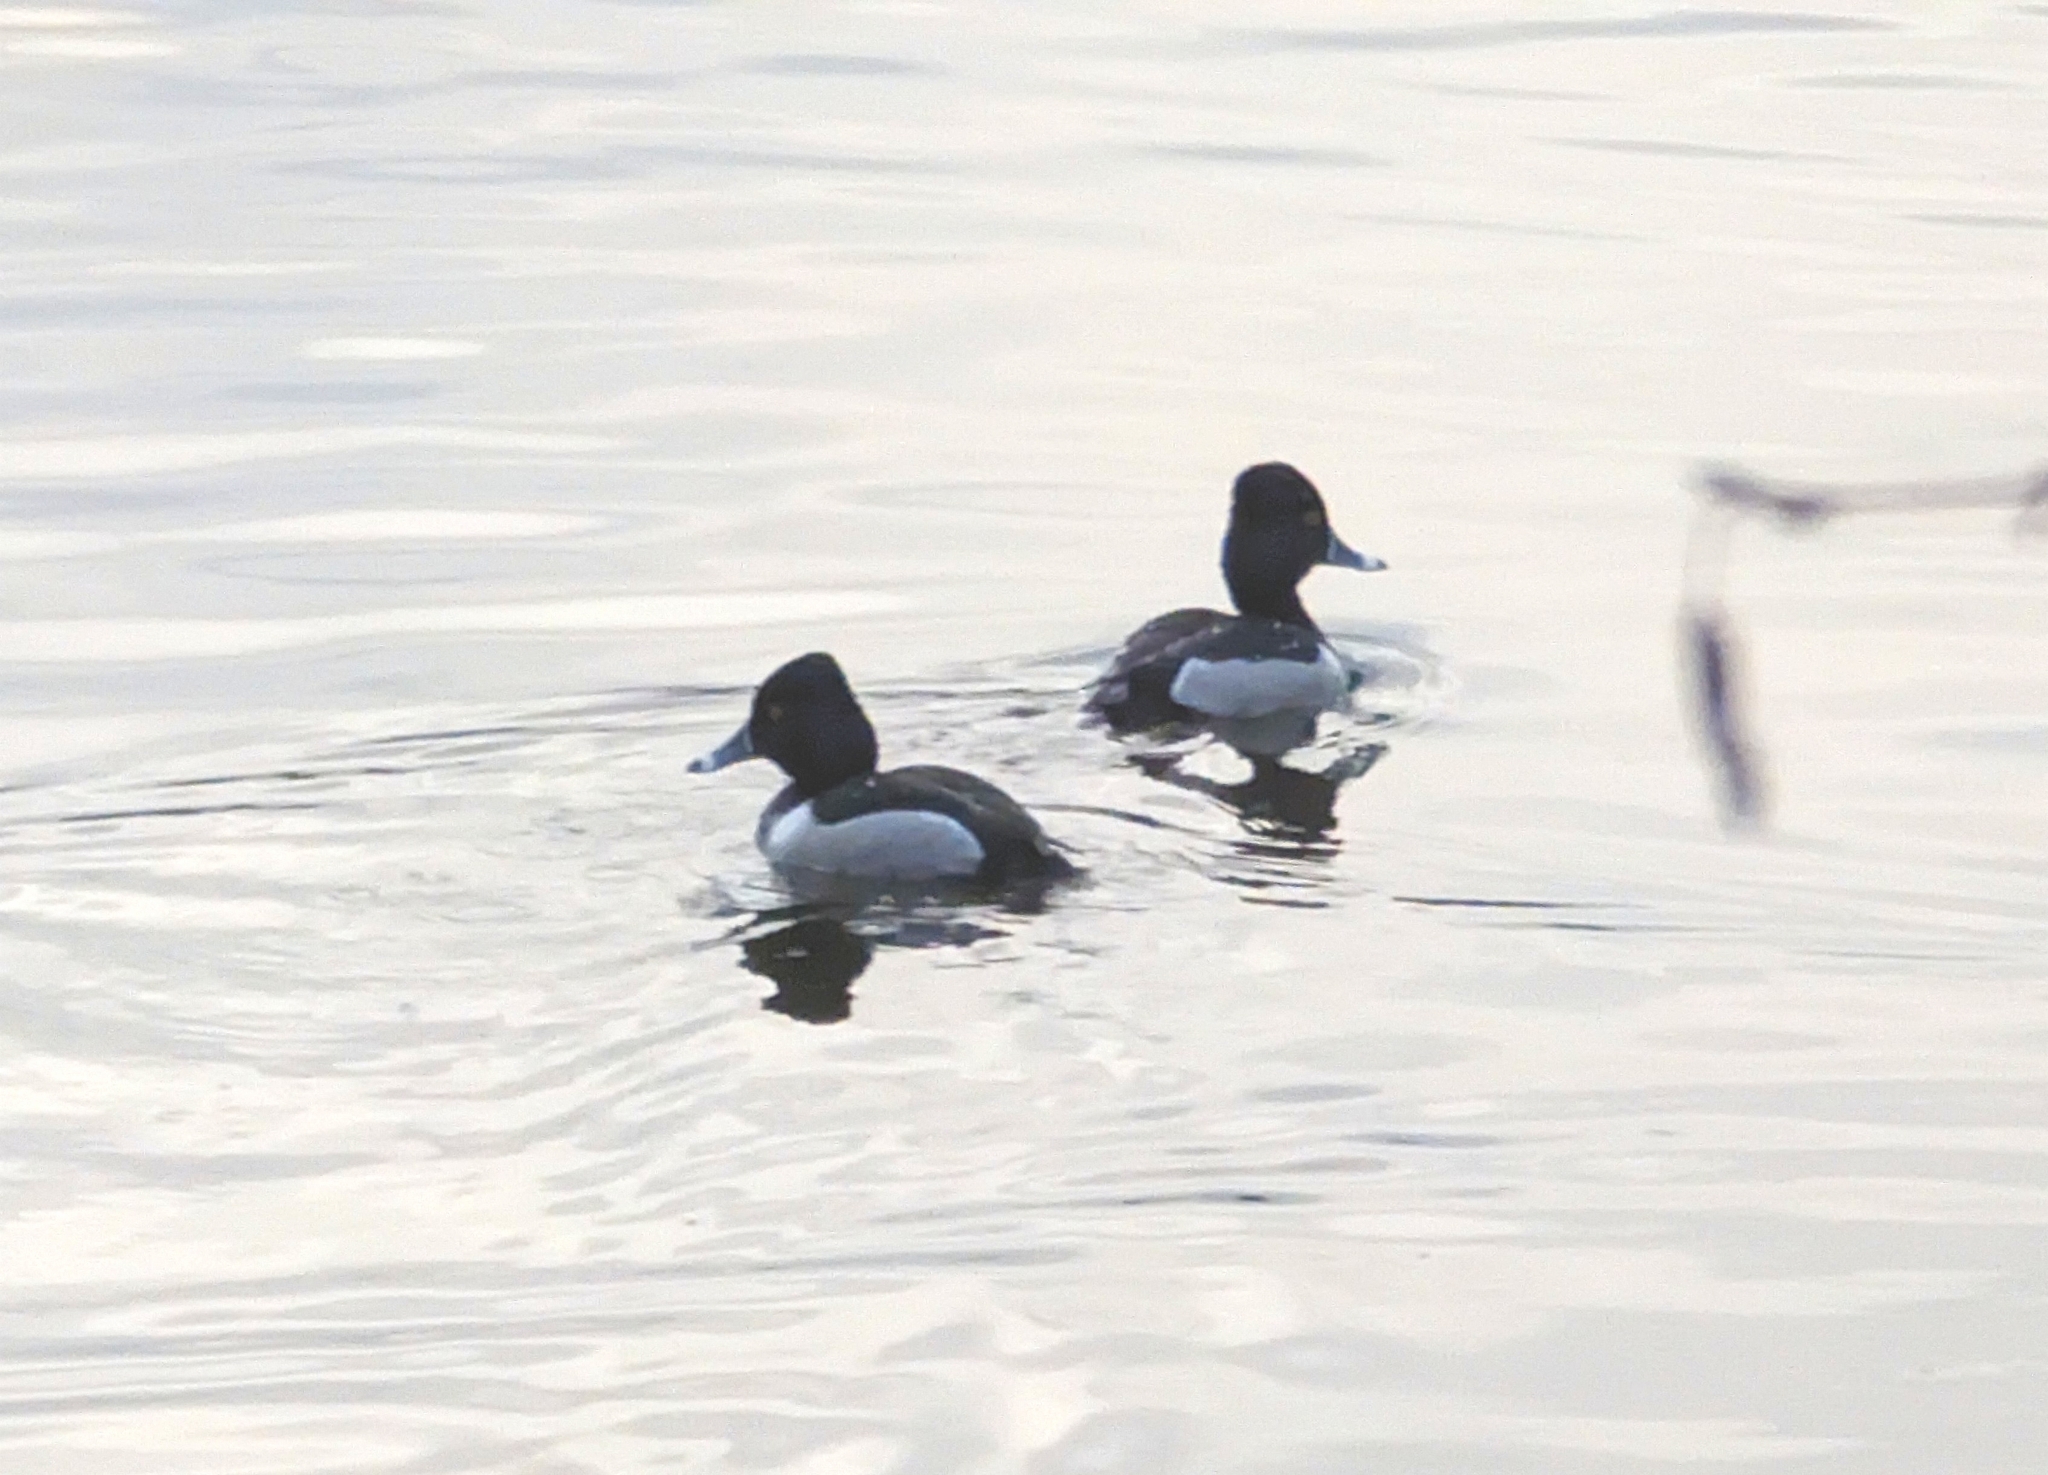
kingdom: Animalia
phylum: Chordata
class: Aves
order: Anseriformes
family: Anatidae
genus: Aythya
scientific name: Aythya collaris
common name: Ring-necked duck
